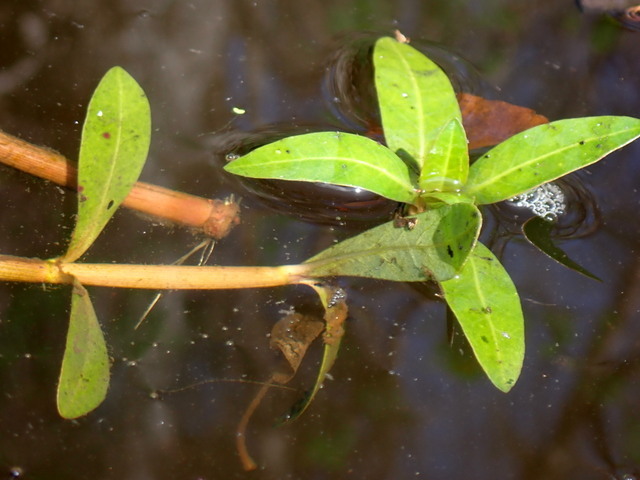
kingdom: Plantae
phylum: Tracheophyta
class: Magnoliopsida
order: Caryophyllales
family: Amaranthaceae
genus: Alternanthera
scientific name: Alternanthera philoxeroides
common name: Alligatorweed
